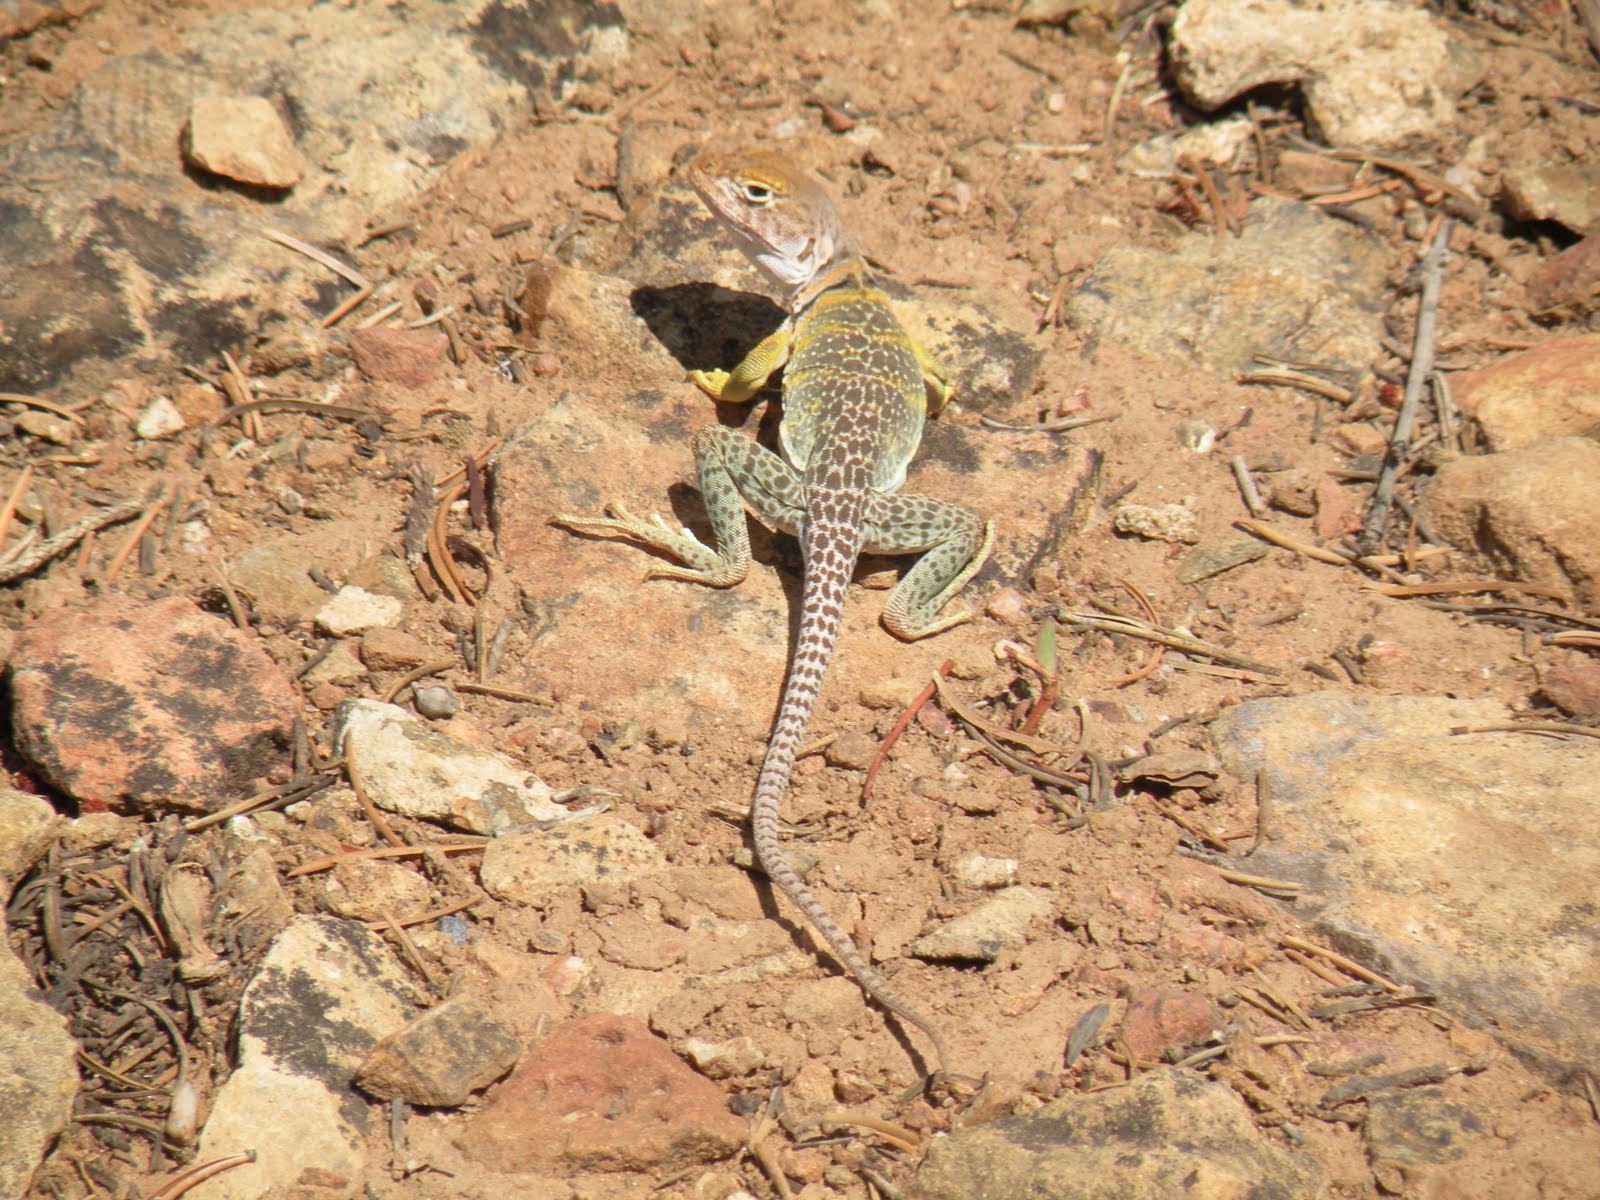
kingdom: Animalia
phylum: Chordata
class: Squamata
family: Crotaphytidae
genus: Crotaphytus
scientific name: Crotaphytus collaris
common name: Collared lizard
